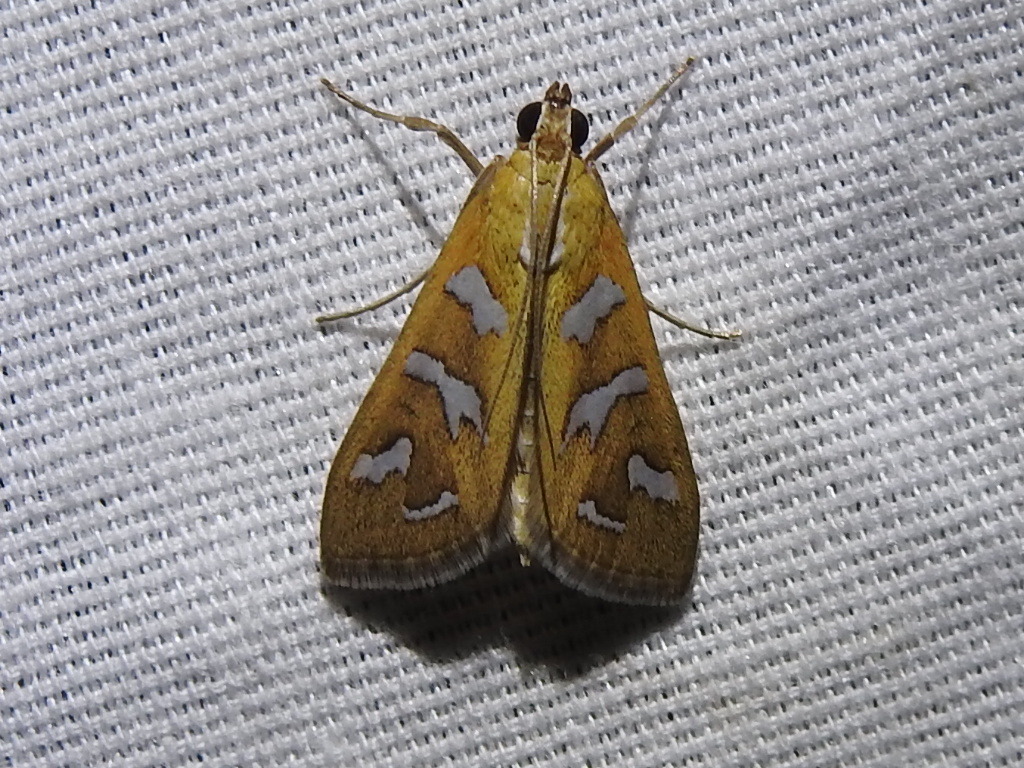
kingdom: Animalia
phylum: Arthropoda
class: Insecta
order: Lepidoptera
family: Crambidae
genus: Diastictis
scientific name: Diastictis fracturalis
